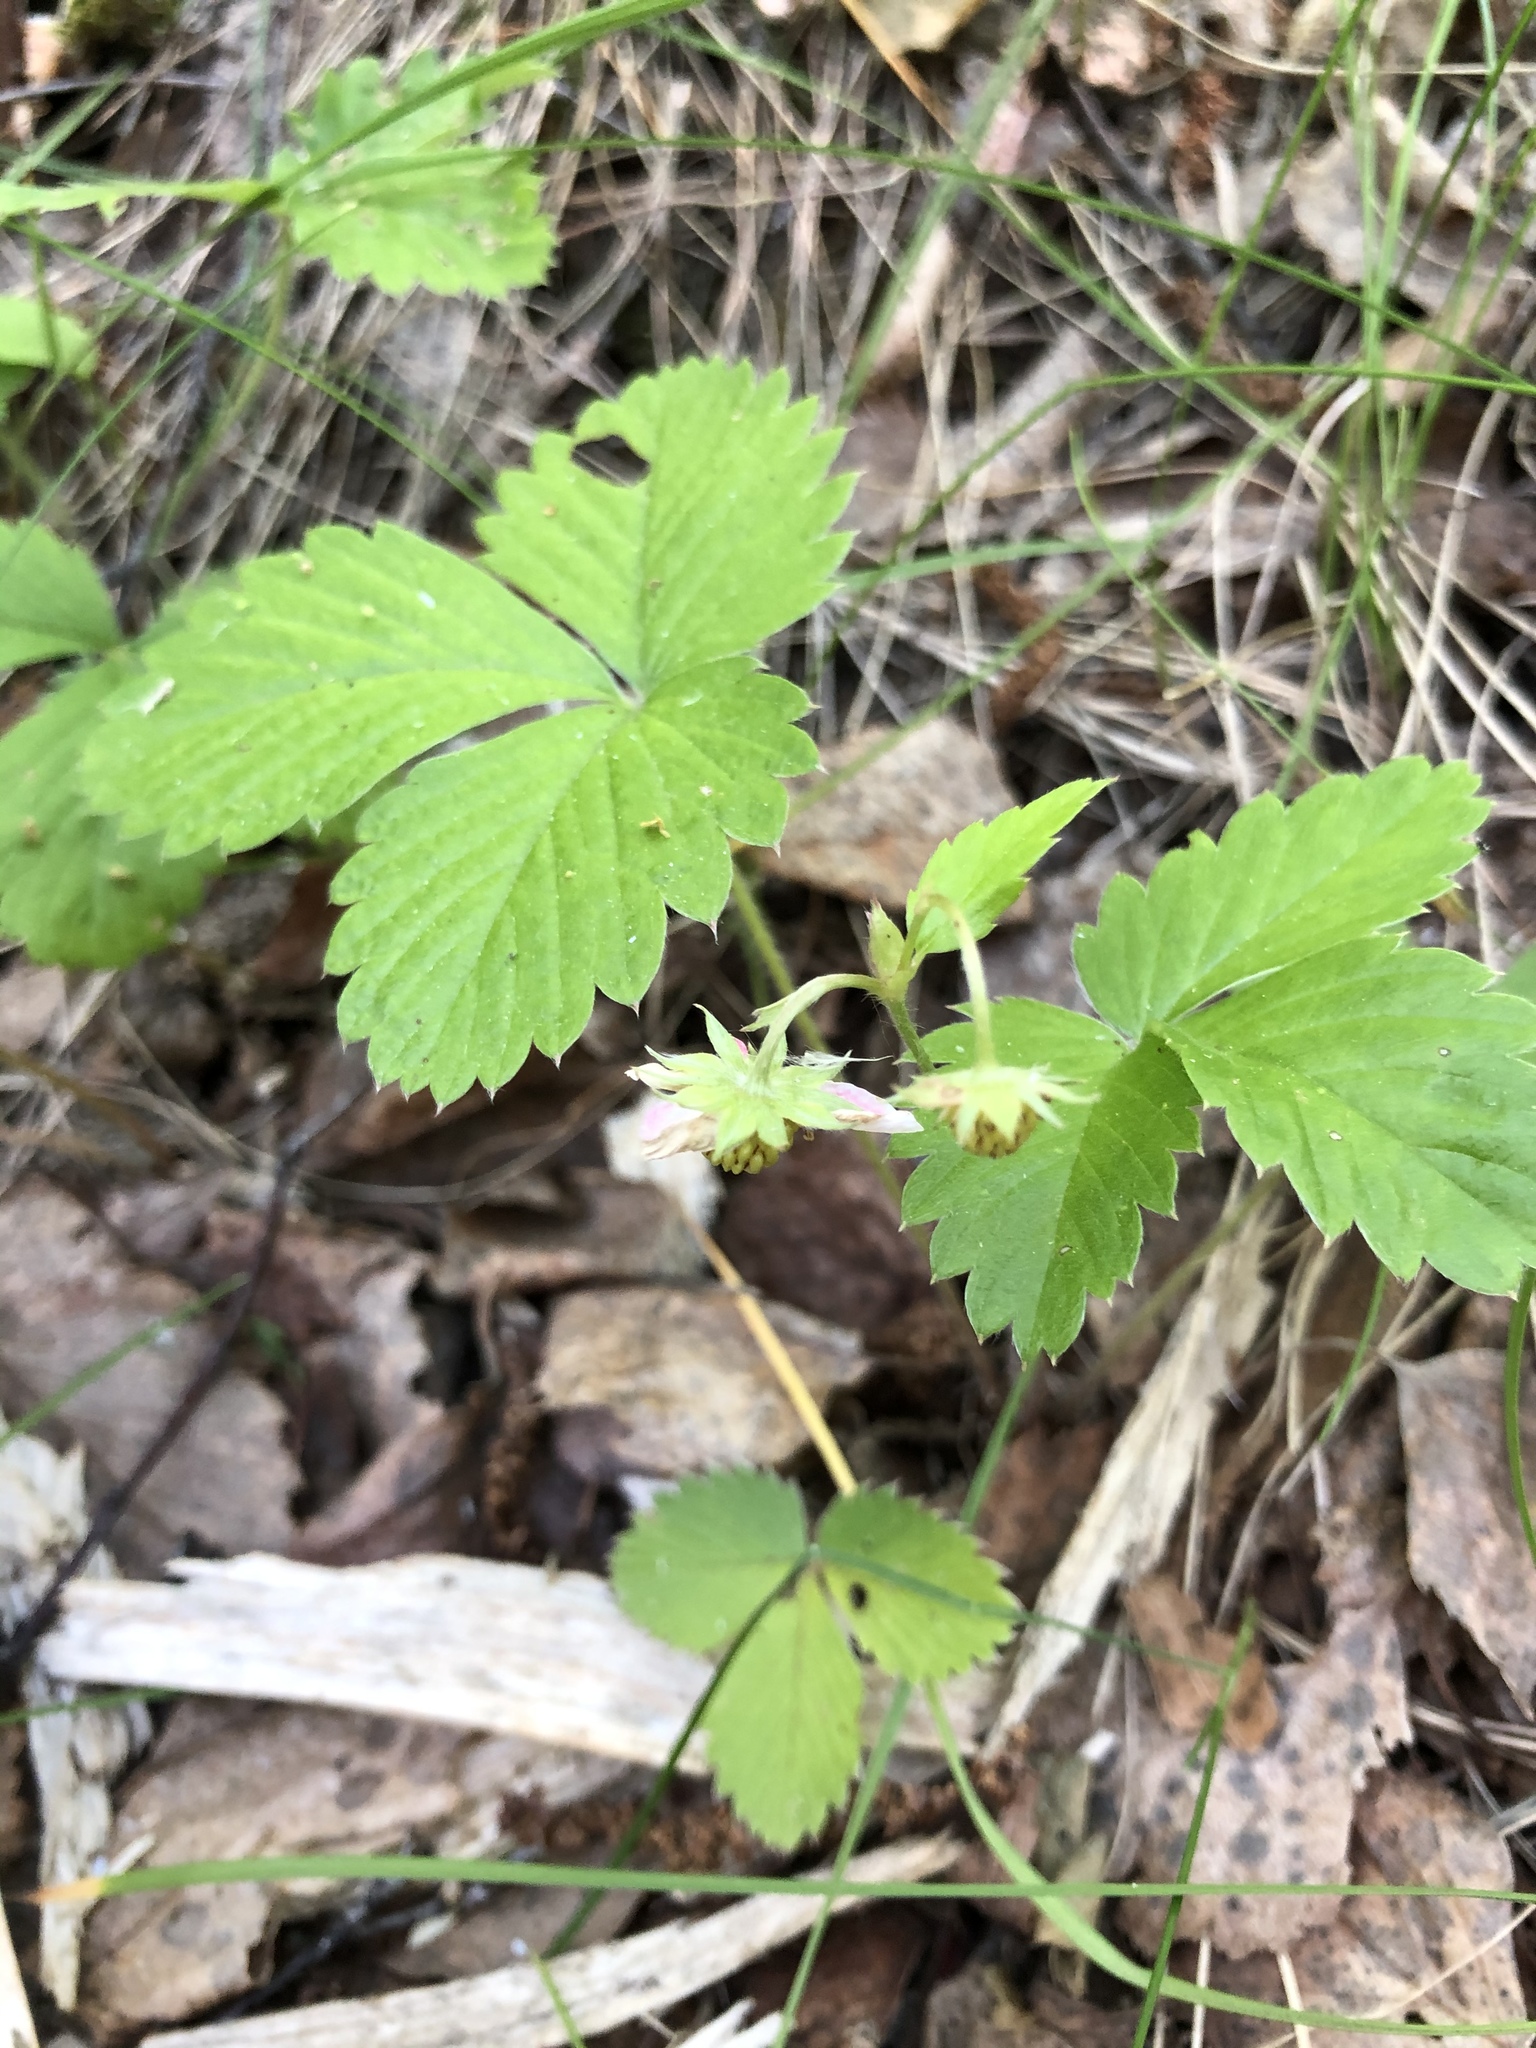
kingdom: Plantae
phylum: Tracheophyta
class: Magnoliopsida
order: Rosales
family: Rosaceae
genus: Fragaria
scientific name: Fragaria vesca
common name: Wild strawberry
